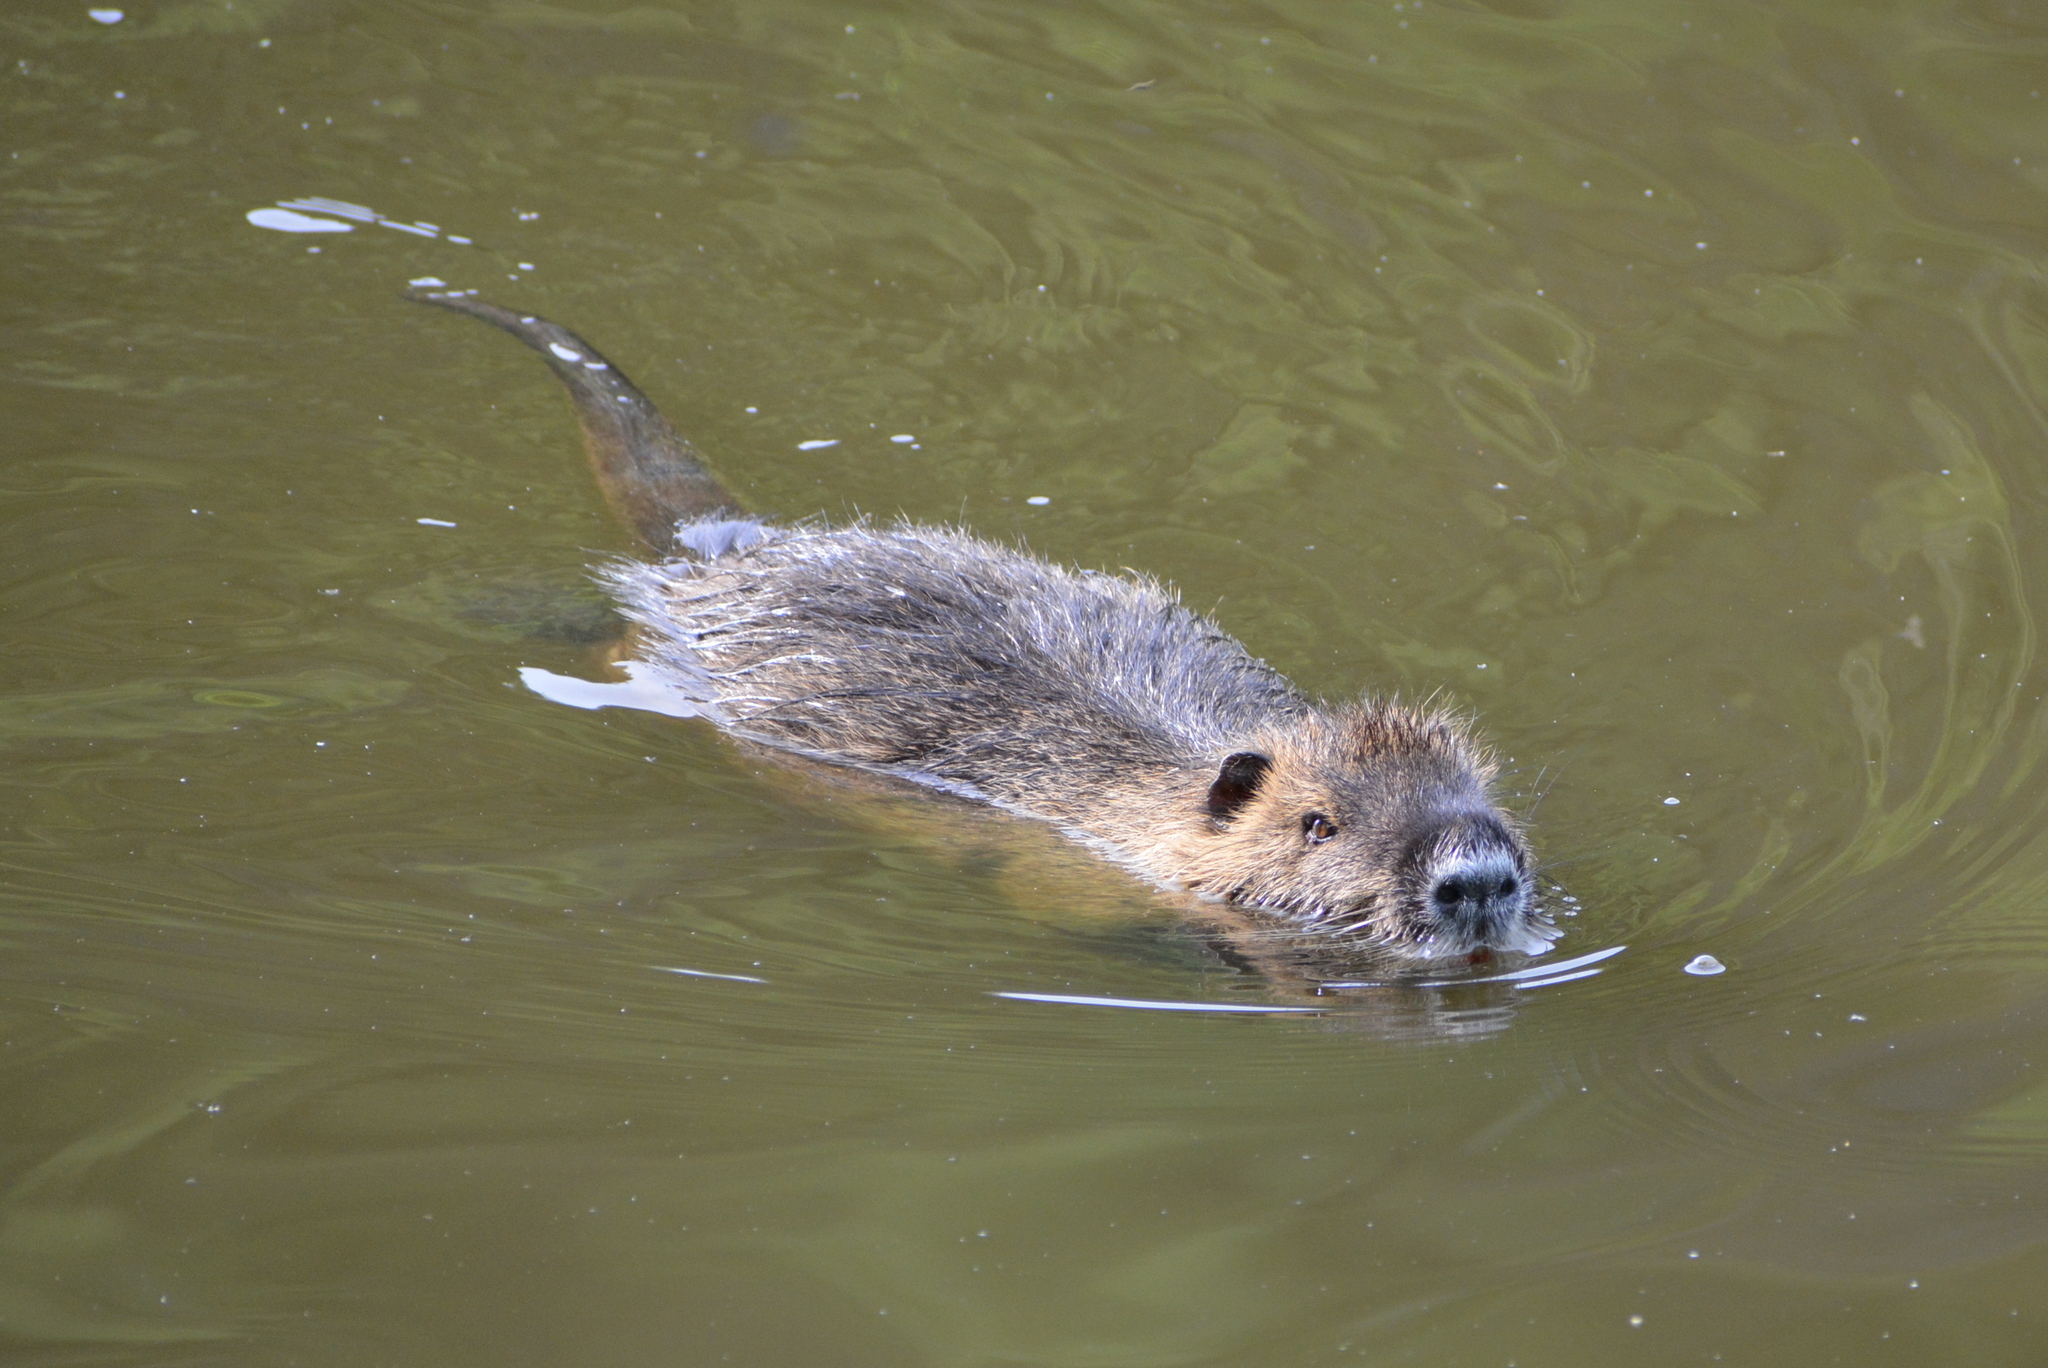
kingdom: Animalia
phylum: Chordata
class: Mammalia
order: Rodentia
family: Myocastoridae
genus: Myocastor
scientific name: Myocastor coypus
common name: Coypu
